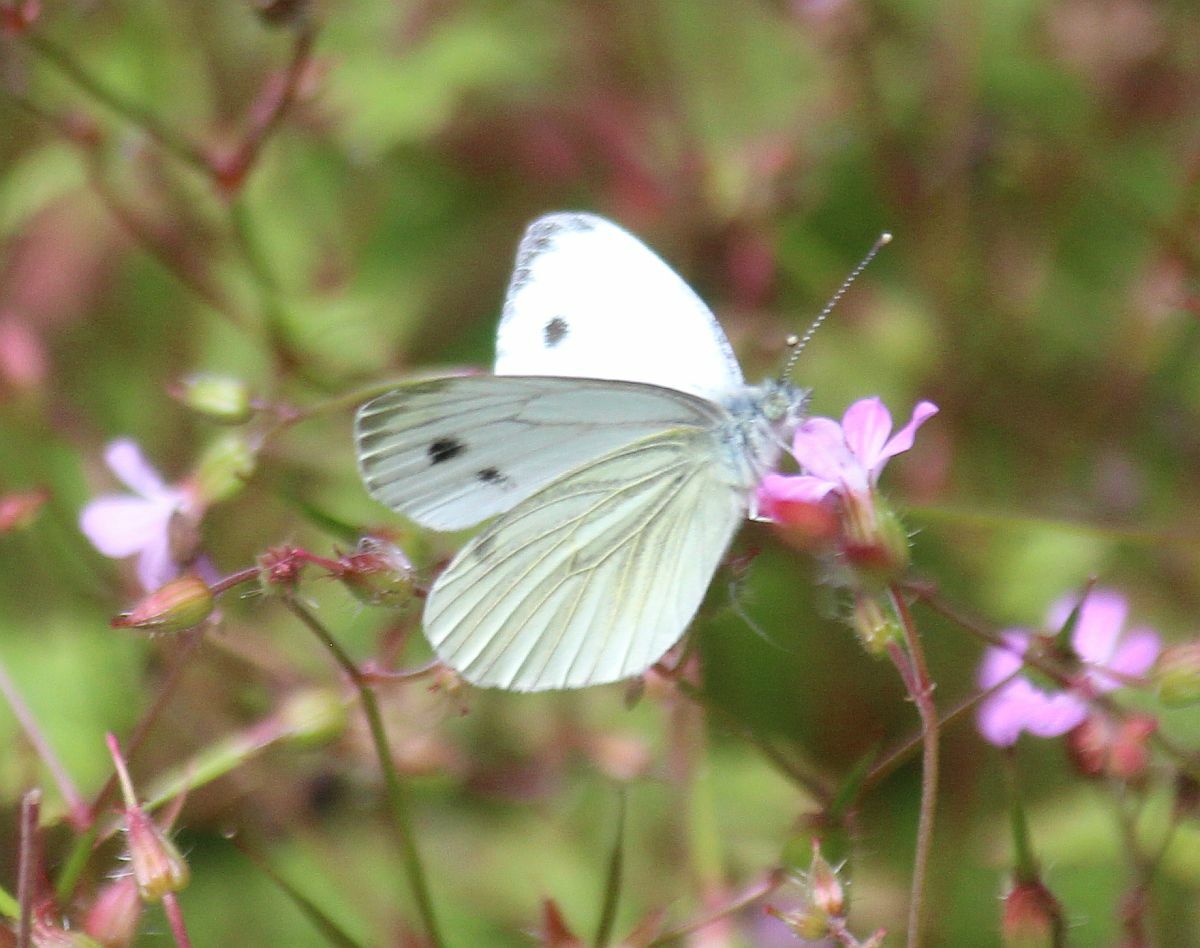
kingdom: Animalia
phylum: Arthropoda
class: Insecta
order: Lepidoptera
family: Pieridae
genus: Pieris
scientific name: Pieris napi
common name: Green-veined white
